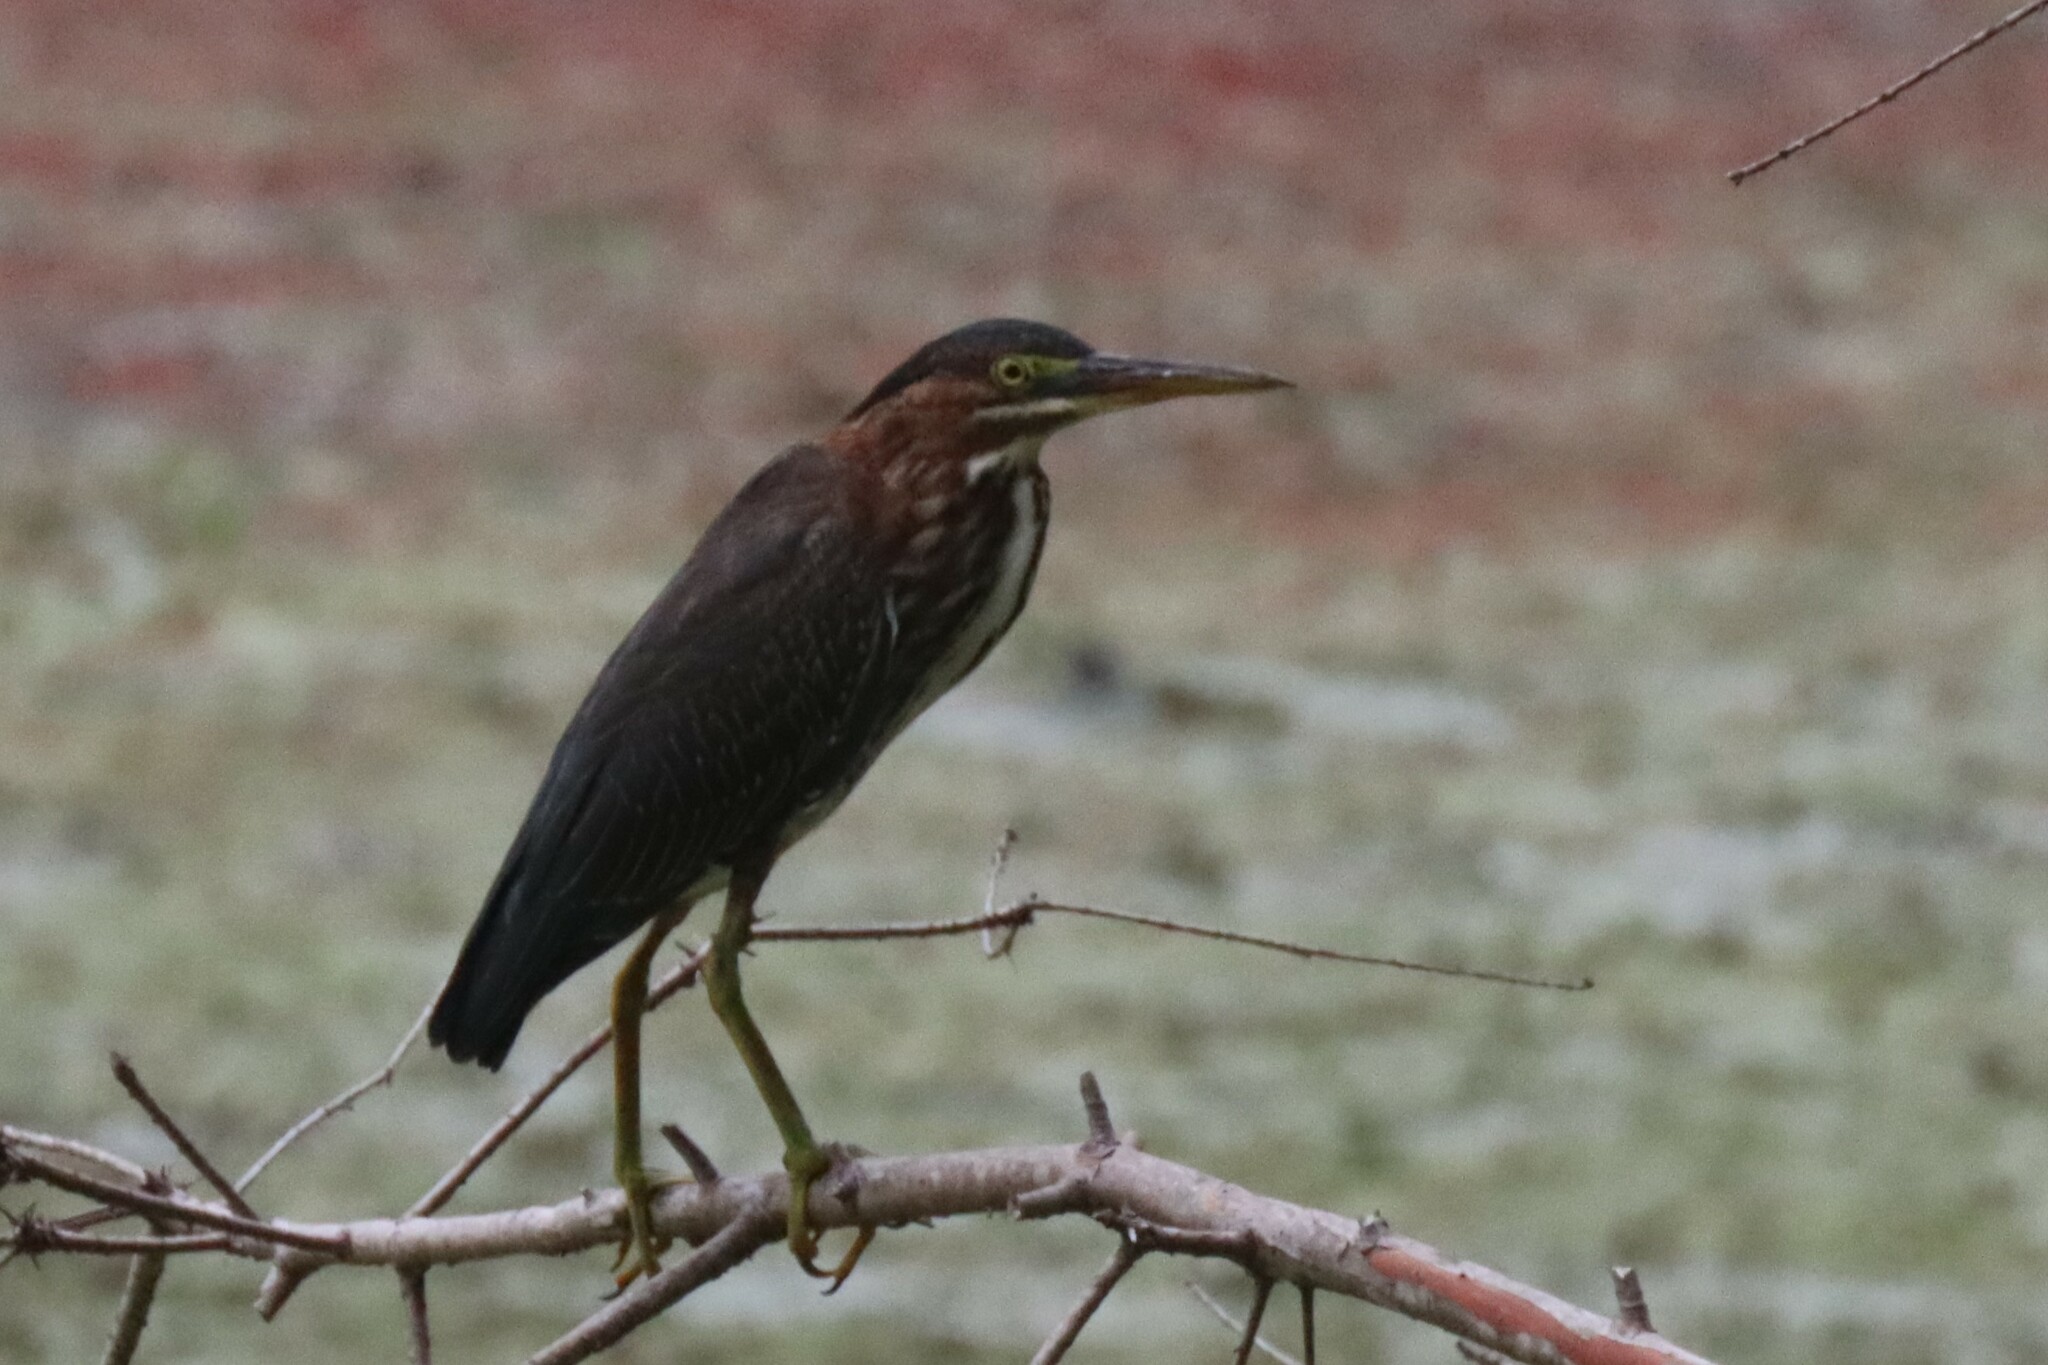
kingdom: Animalia
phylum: Chordata
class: Aves
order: Pelecaniformes
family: Ardeidae
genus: Butorides
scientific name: Butorides virescens
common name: Green heron
